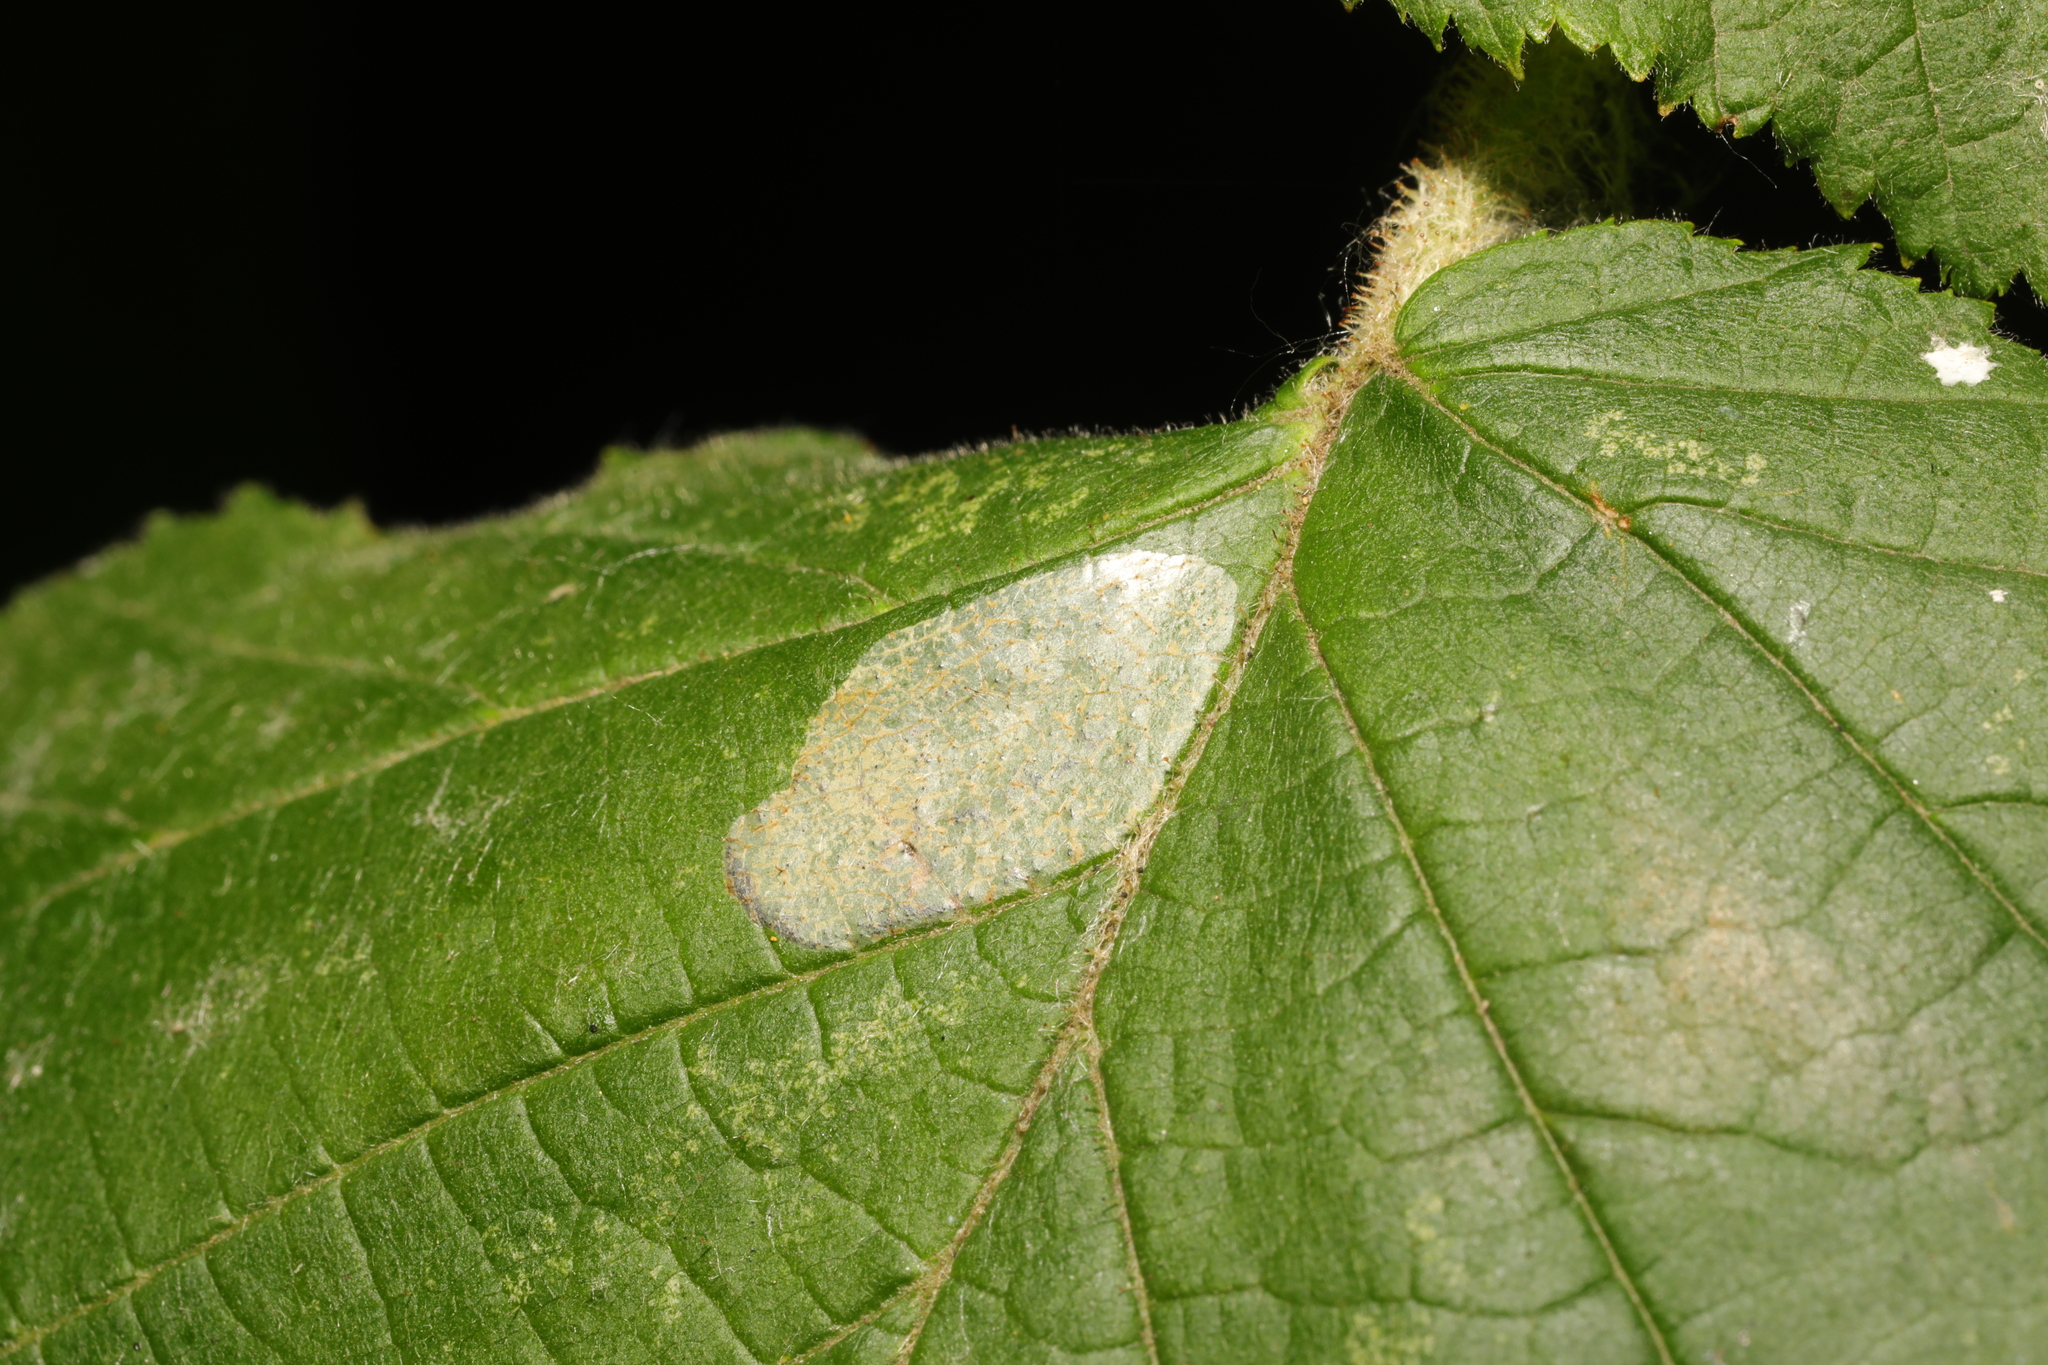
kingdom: Animalia
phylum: Arthropoda
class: Insecta
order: Lepidoptera
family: Gracillariidae
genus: Phyllonorycter
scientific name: Phyllonorycter coryli
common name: Nut-leaf blister moth
